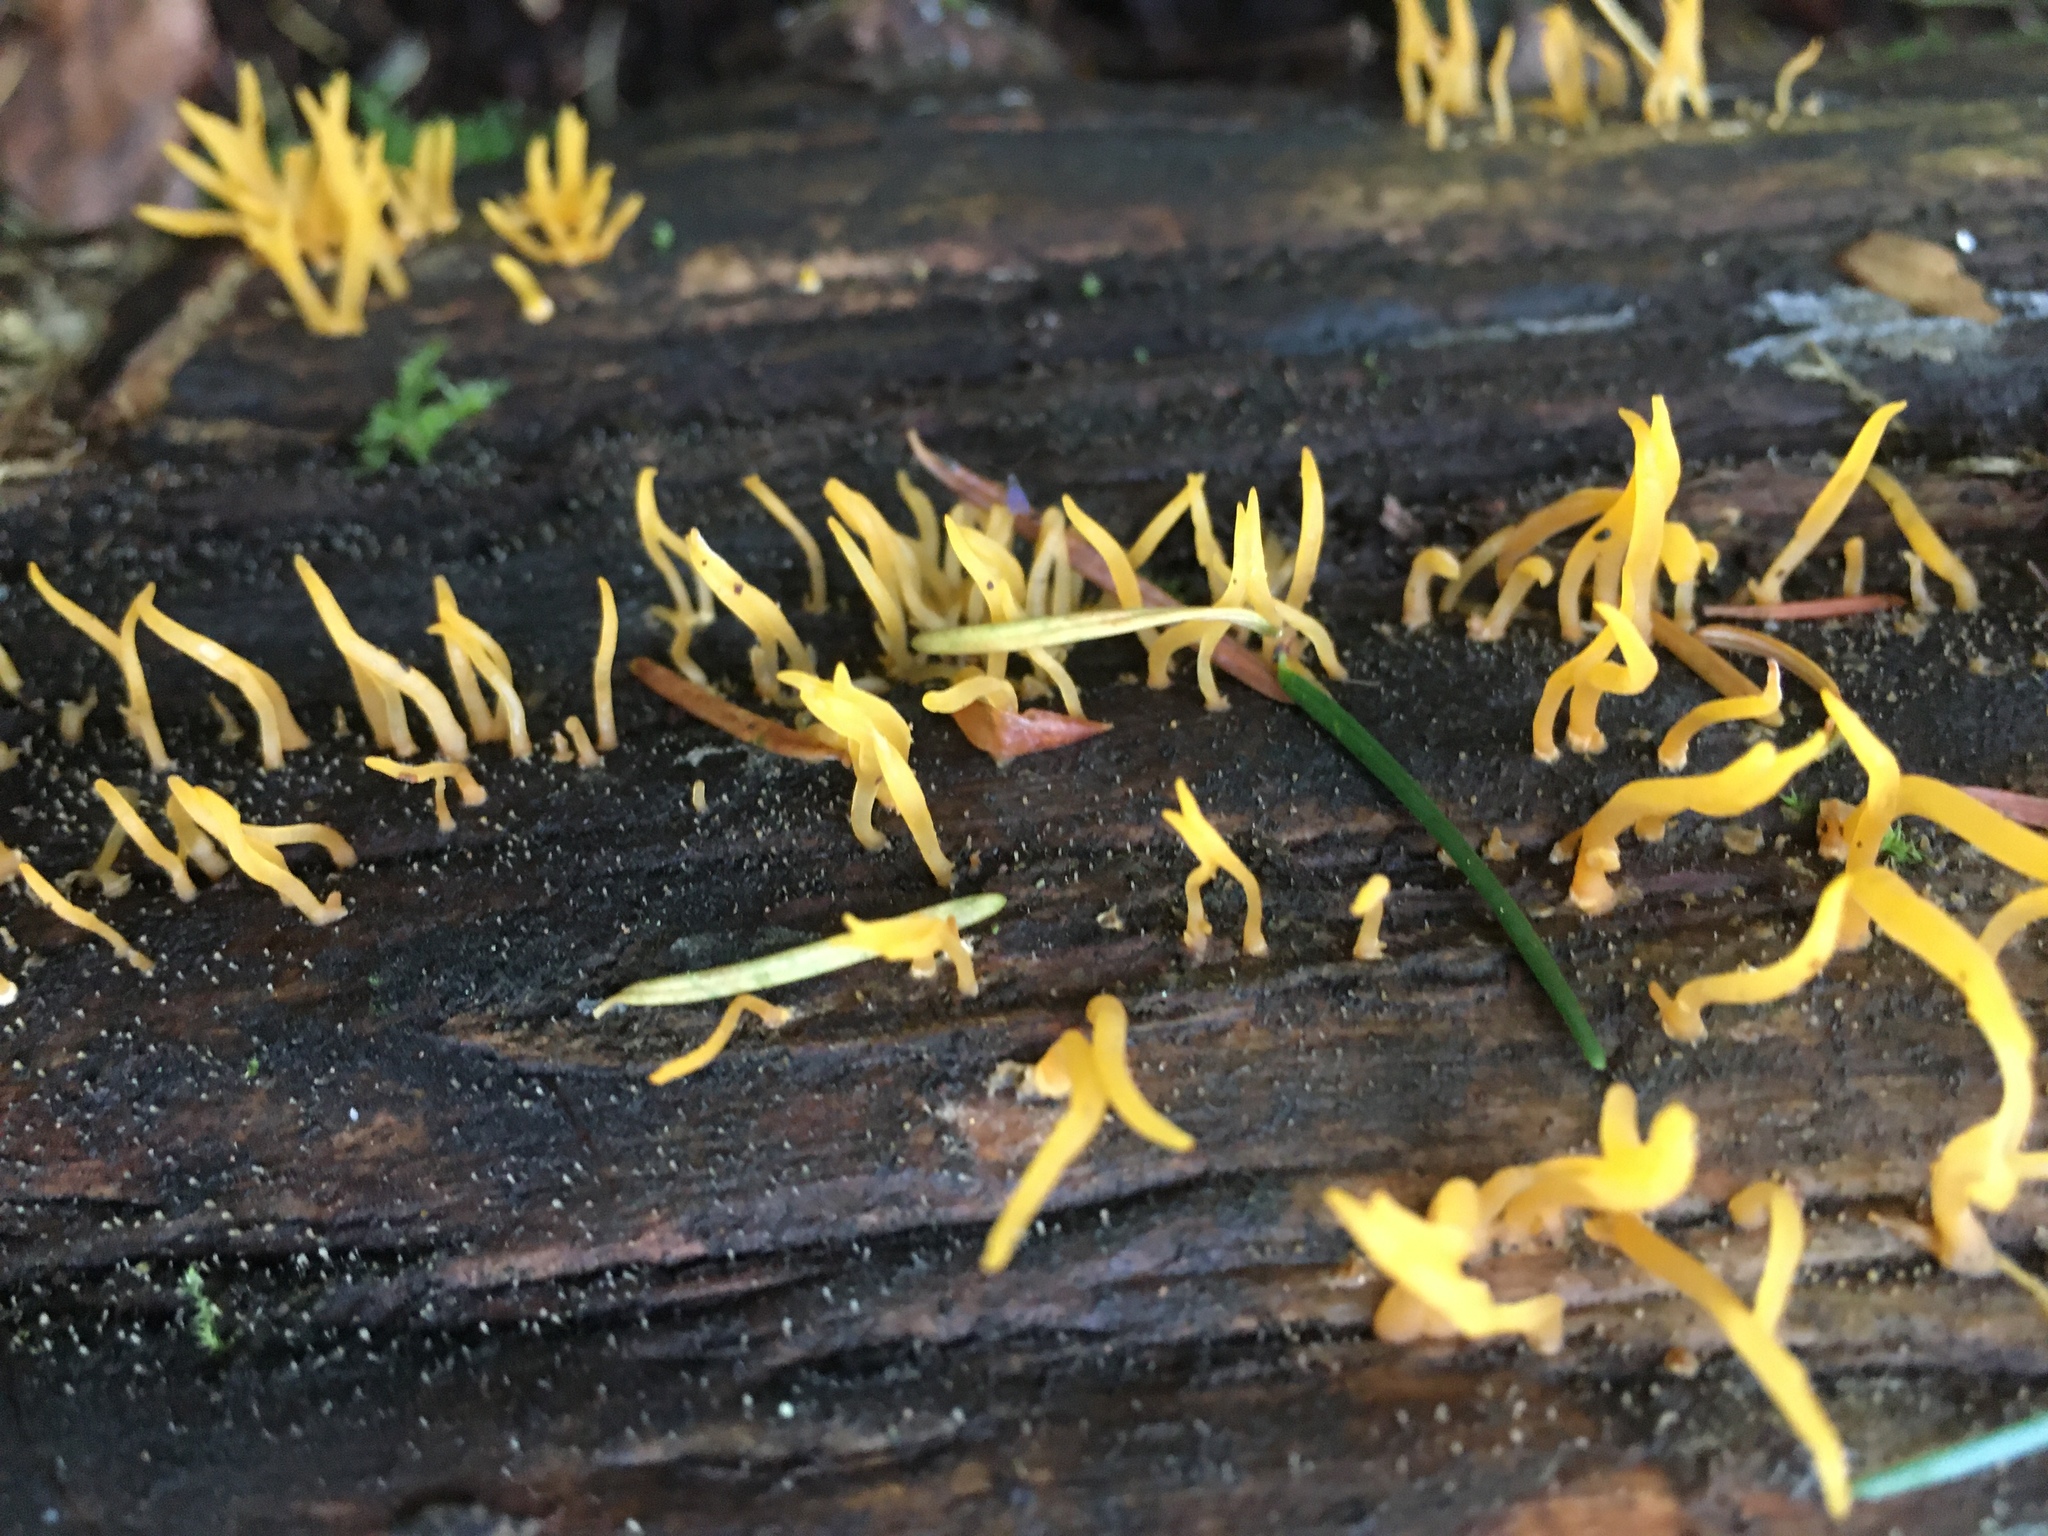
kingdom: Fungi
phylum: Basidiomycota
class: Dacrymycetes
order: Dacrymycetales
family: Dacrymycetaceae
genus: Calocera
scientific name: Calocera cornea
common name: Small stagshorn
